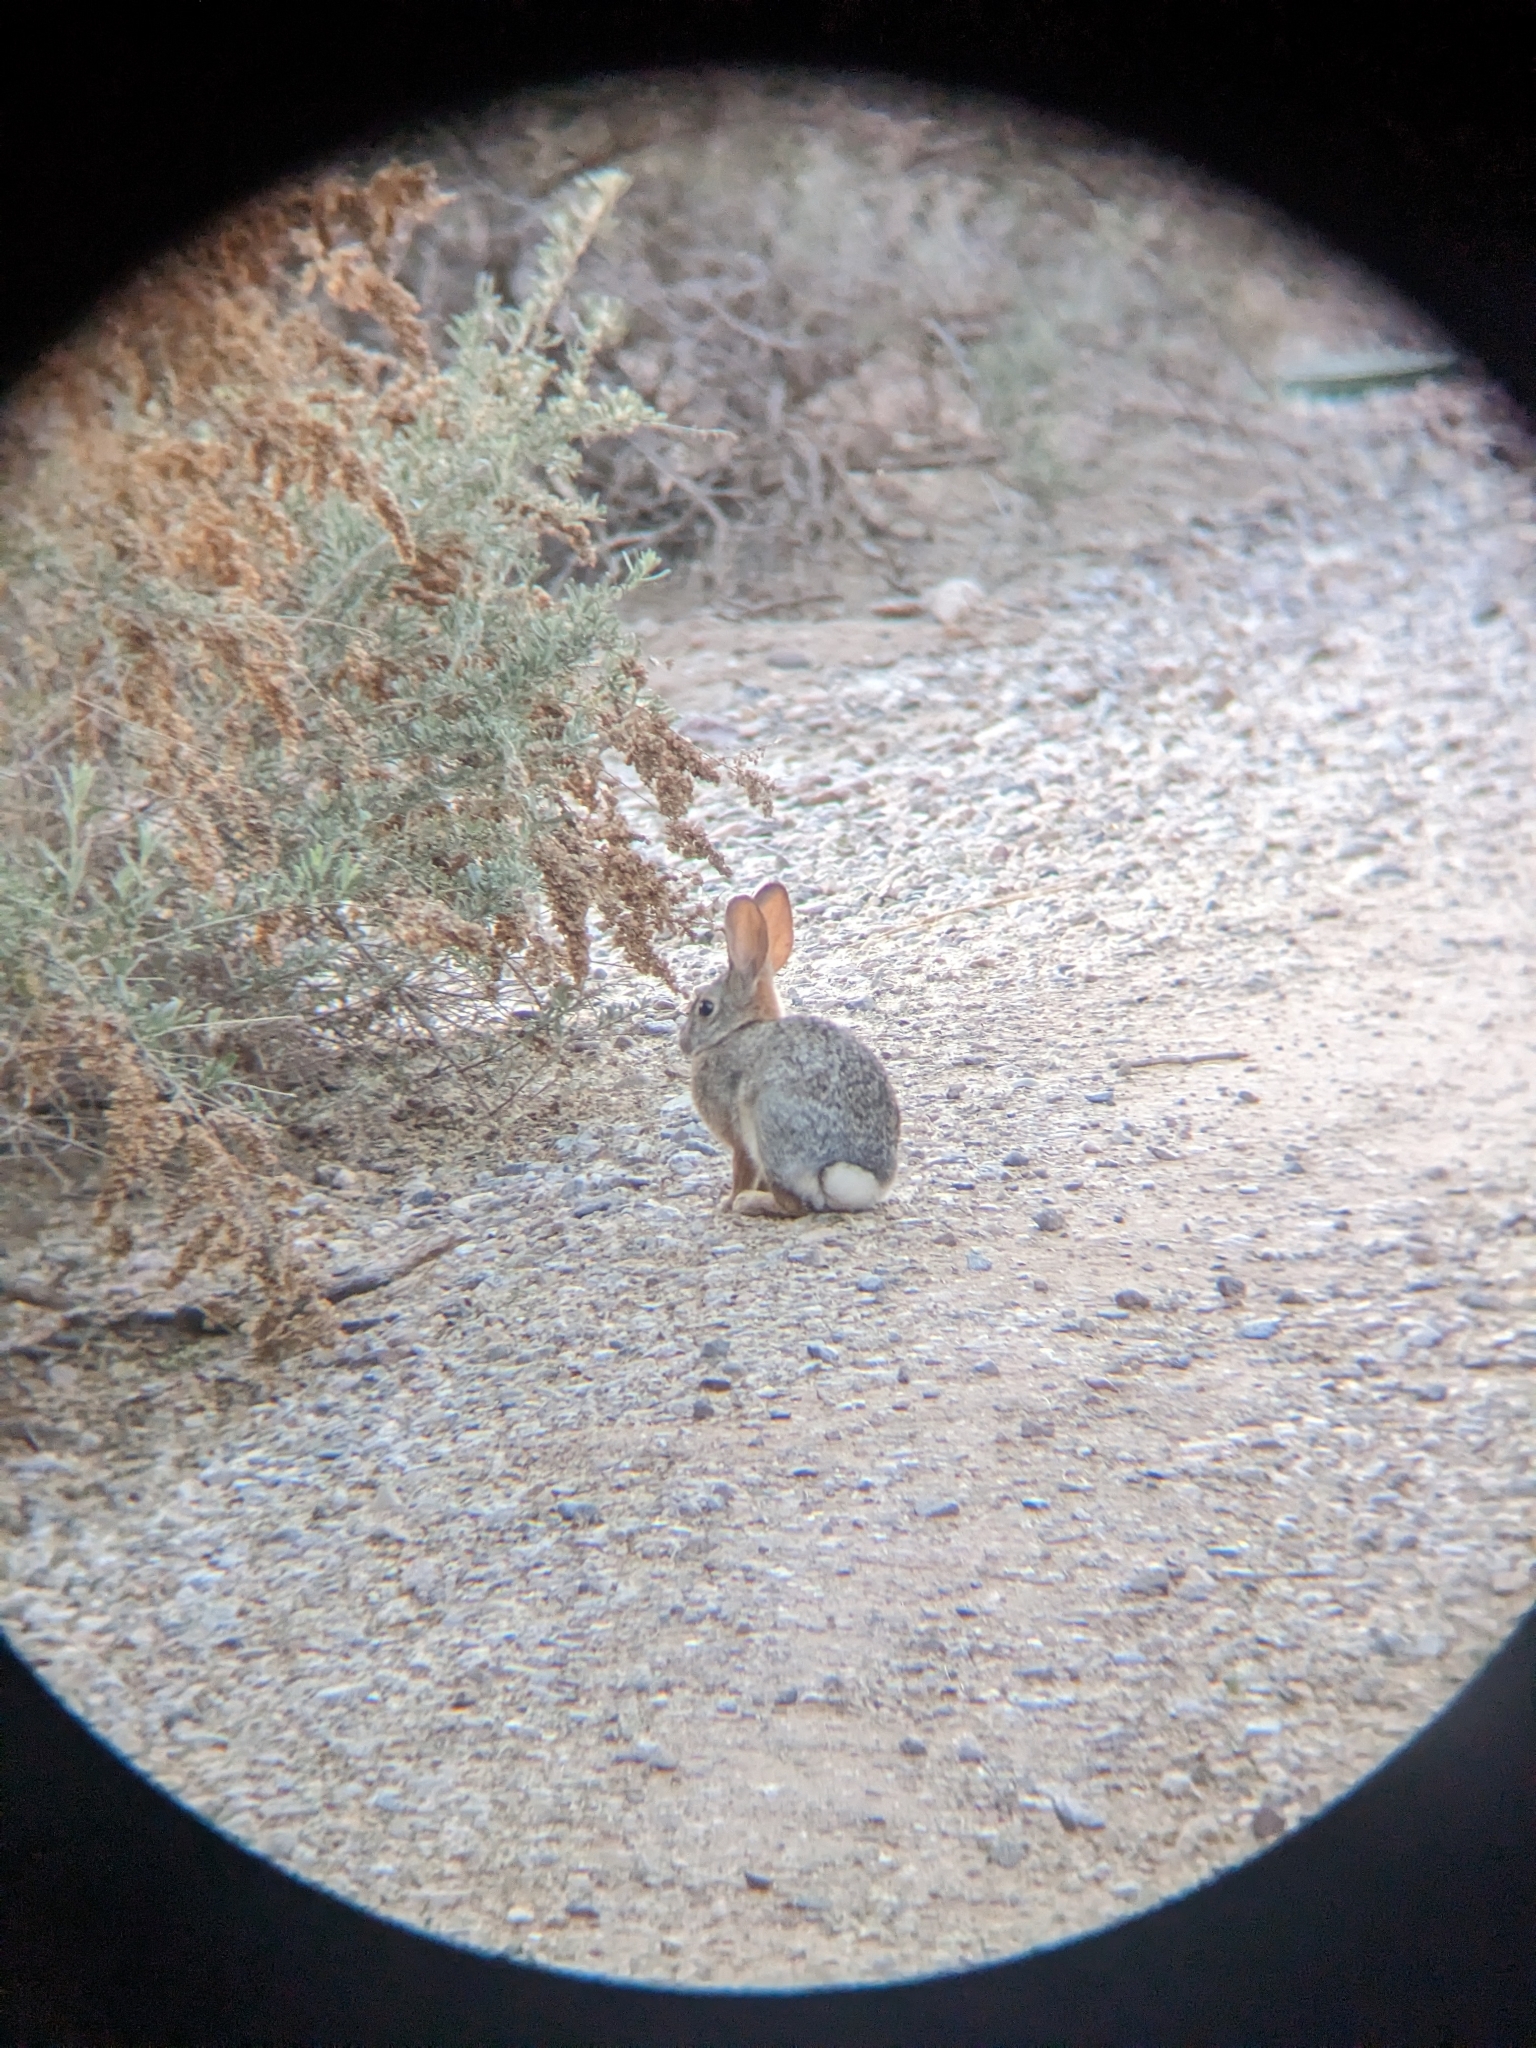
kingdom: Animalia
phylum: Chordata
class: Mammalia
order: Lagomorpha
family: Leporidae
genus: Sylvilagus
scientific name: Sylvilagus audubonii
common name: Desert cottontail
